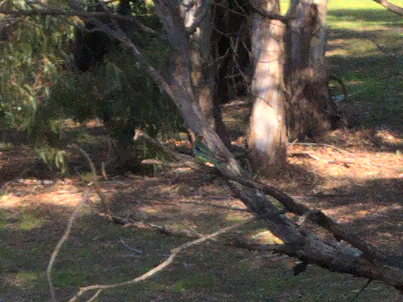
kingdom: Animalia
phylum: Chordata
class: Aves
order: Psittaciformes
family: Psittacidae
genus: Platycercus
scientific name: Platycercus eximius
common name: Eastern rosella
